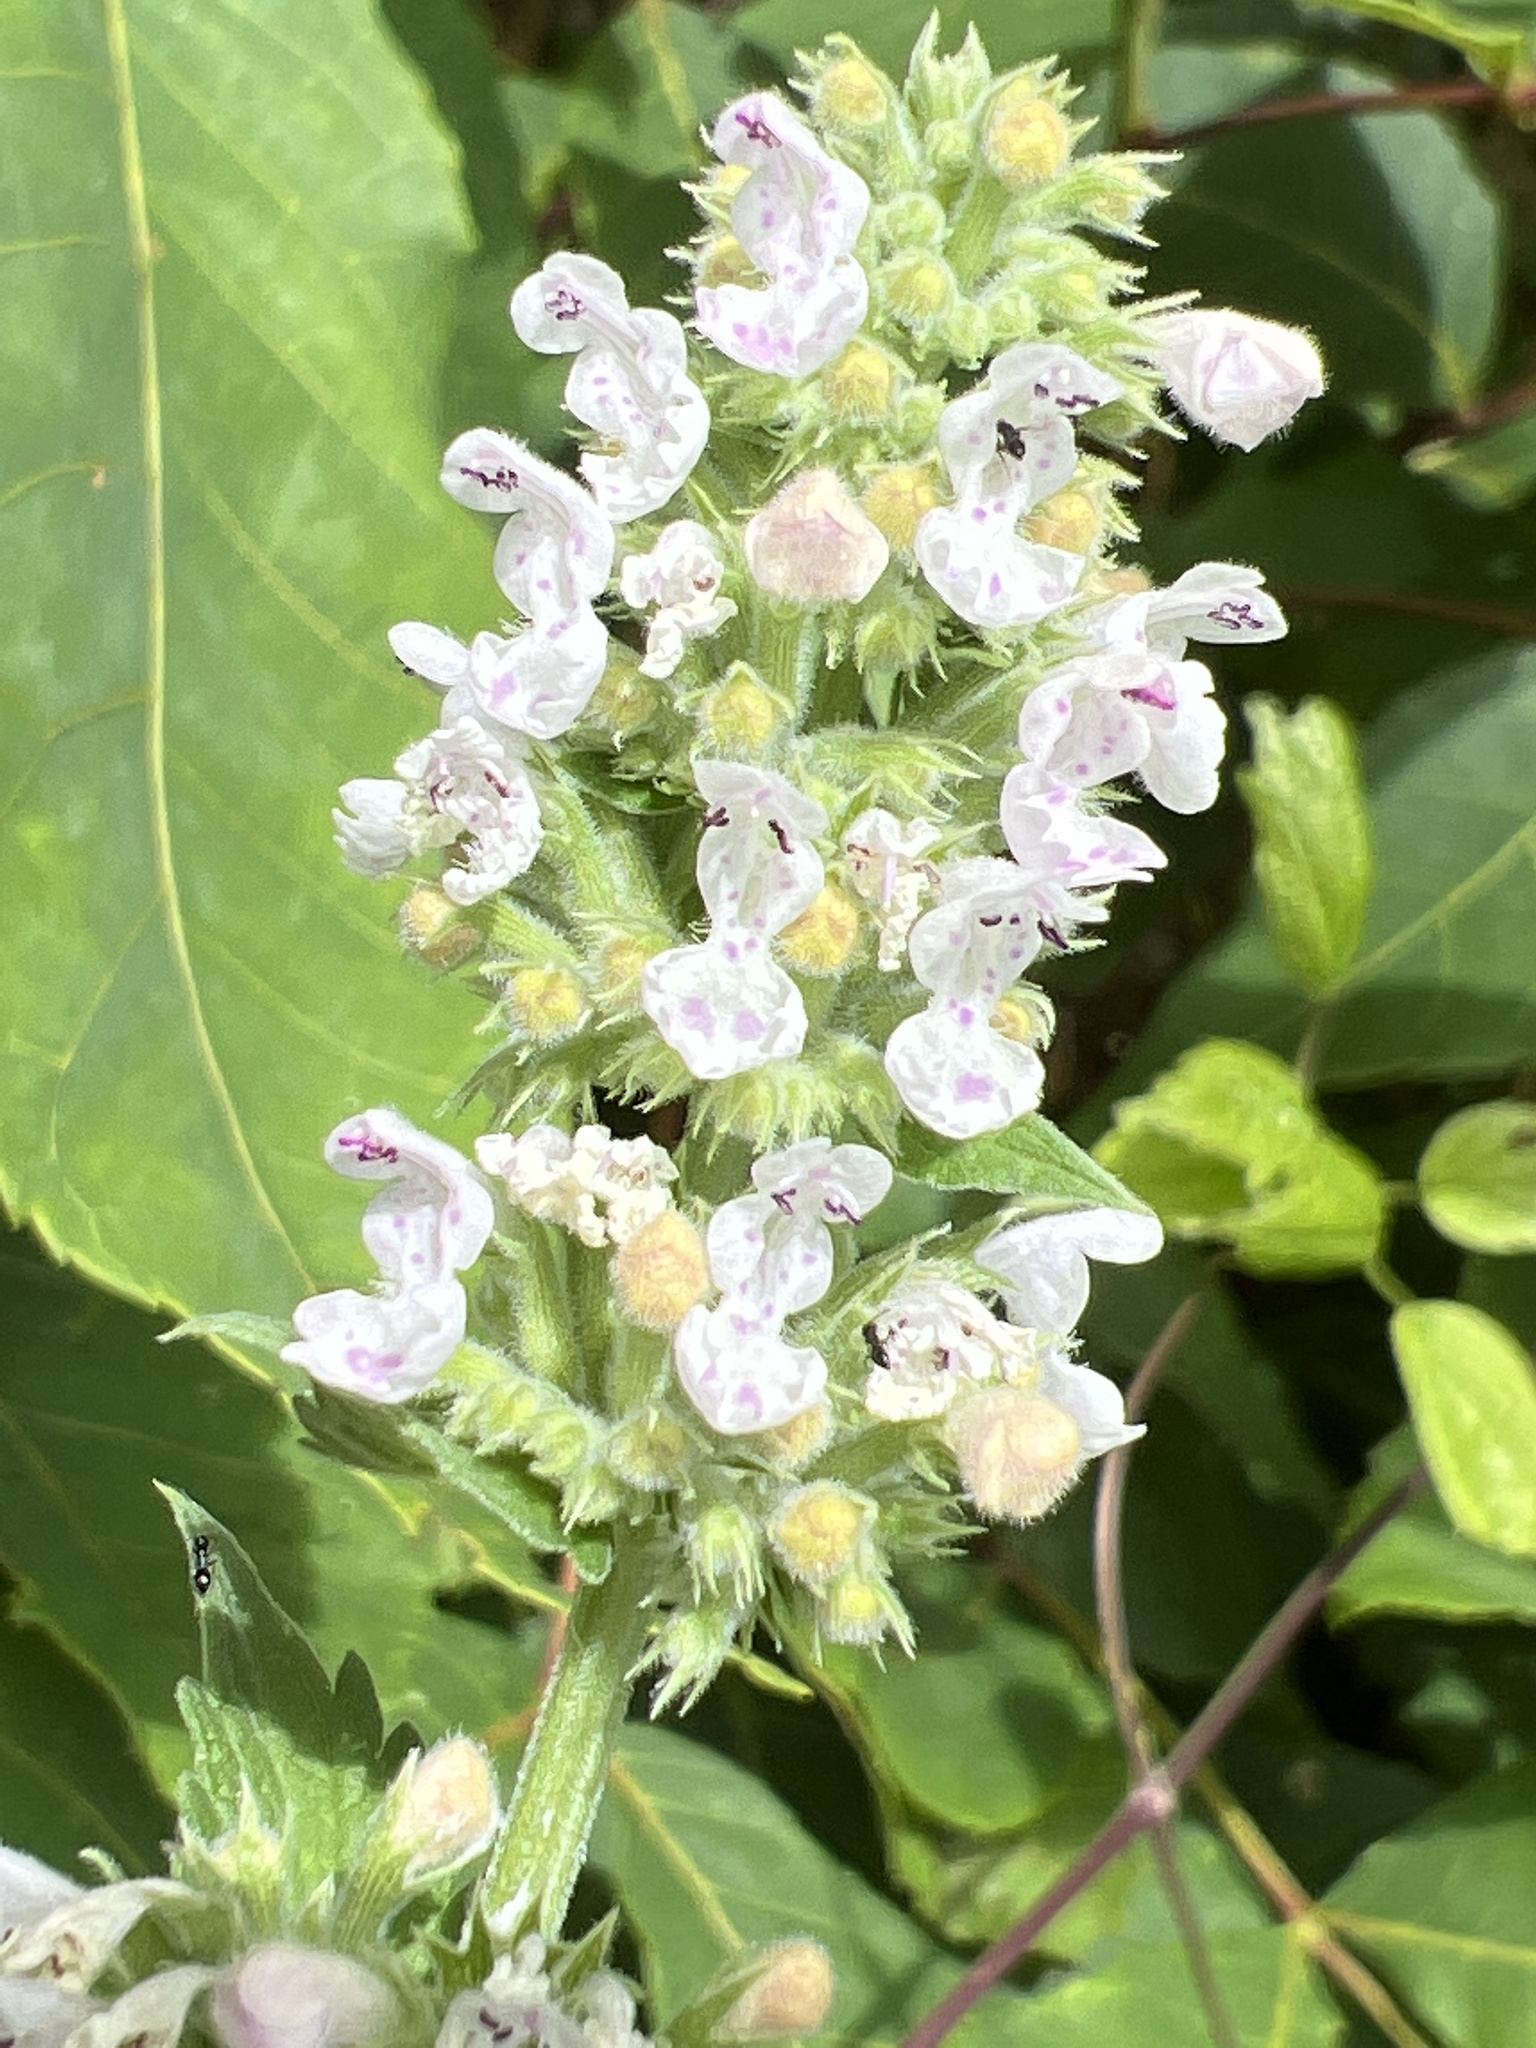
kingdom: Plantae
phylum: Tracheophyta
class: Magnoliopsida
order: Lamiales
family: Lamiaceae
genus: Nepeta
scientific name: Nepeta cataria
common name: Catnip
